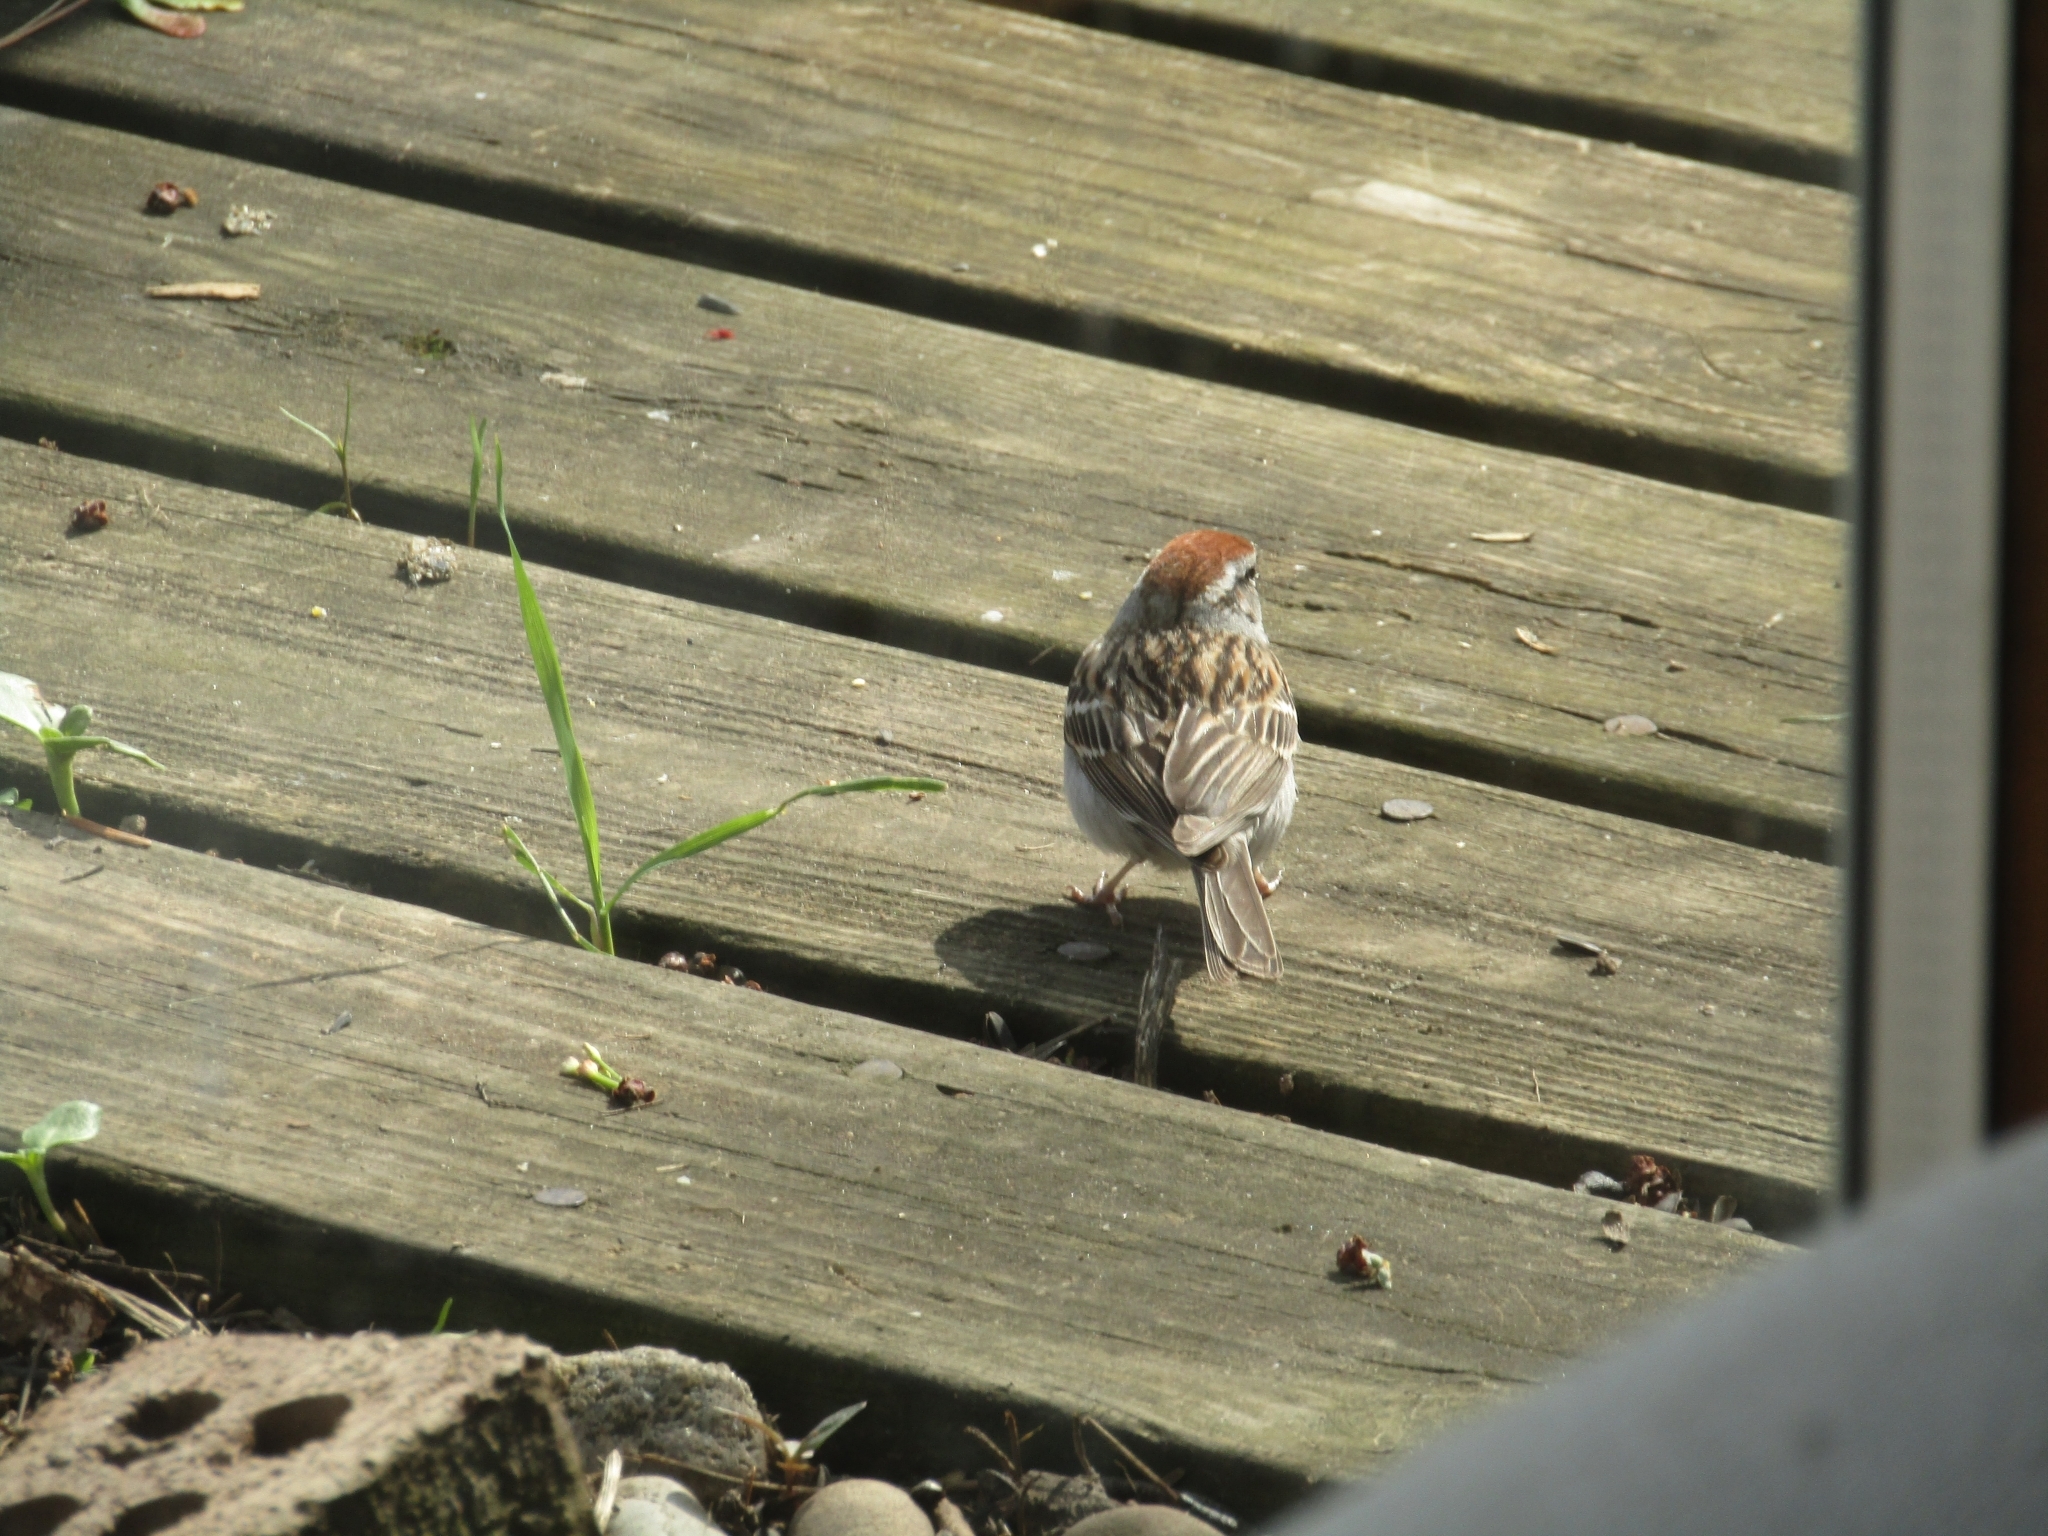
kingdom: Animalia
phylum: Chordata
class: Aves
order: Passeriformes
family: Passerellidae
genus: Spizella
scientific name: Spizella passerina
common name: Chipping sparrow
